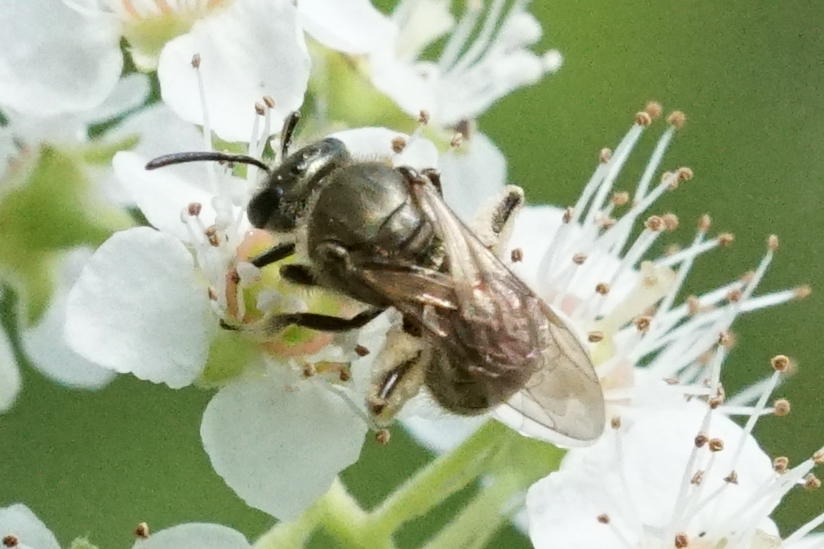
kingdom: Animalia
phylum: Arthropoda
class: Insecta
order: Hymenoptera
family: Halictidae
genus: Dialictus
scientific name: Dialictus
